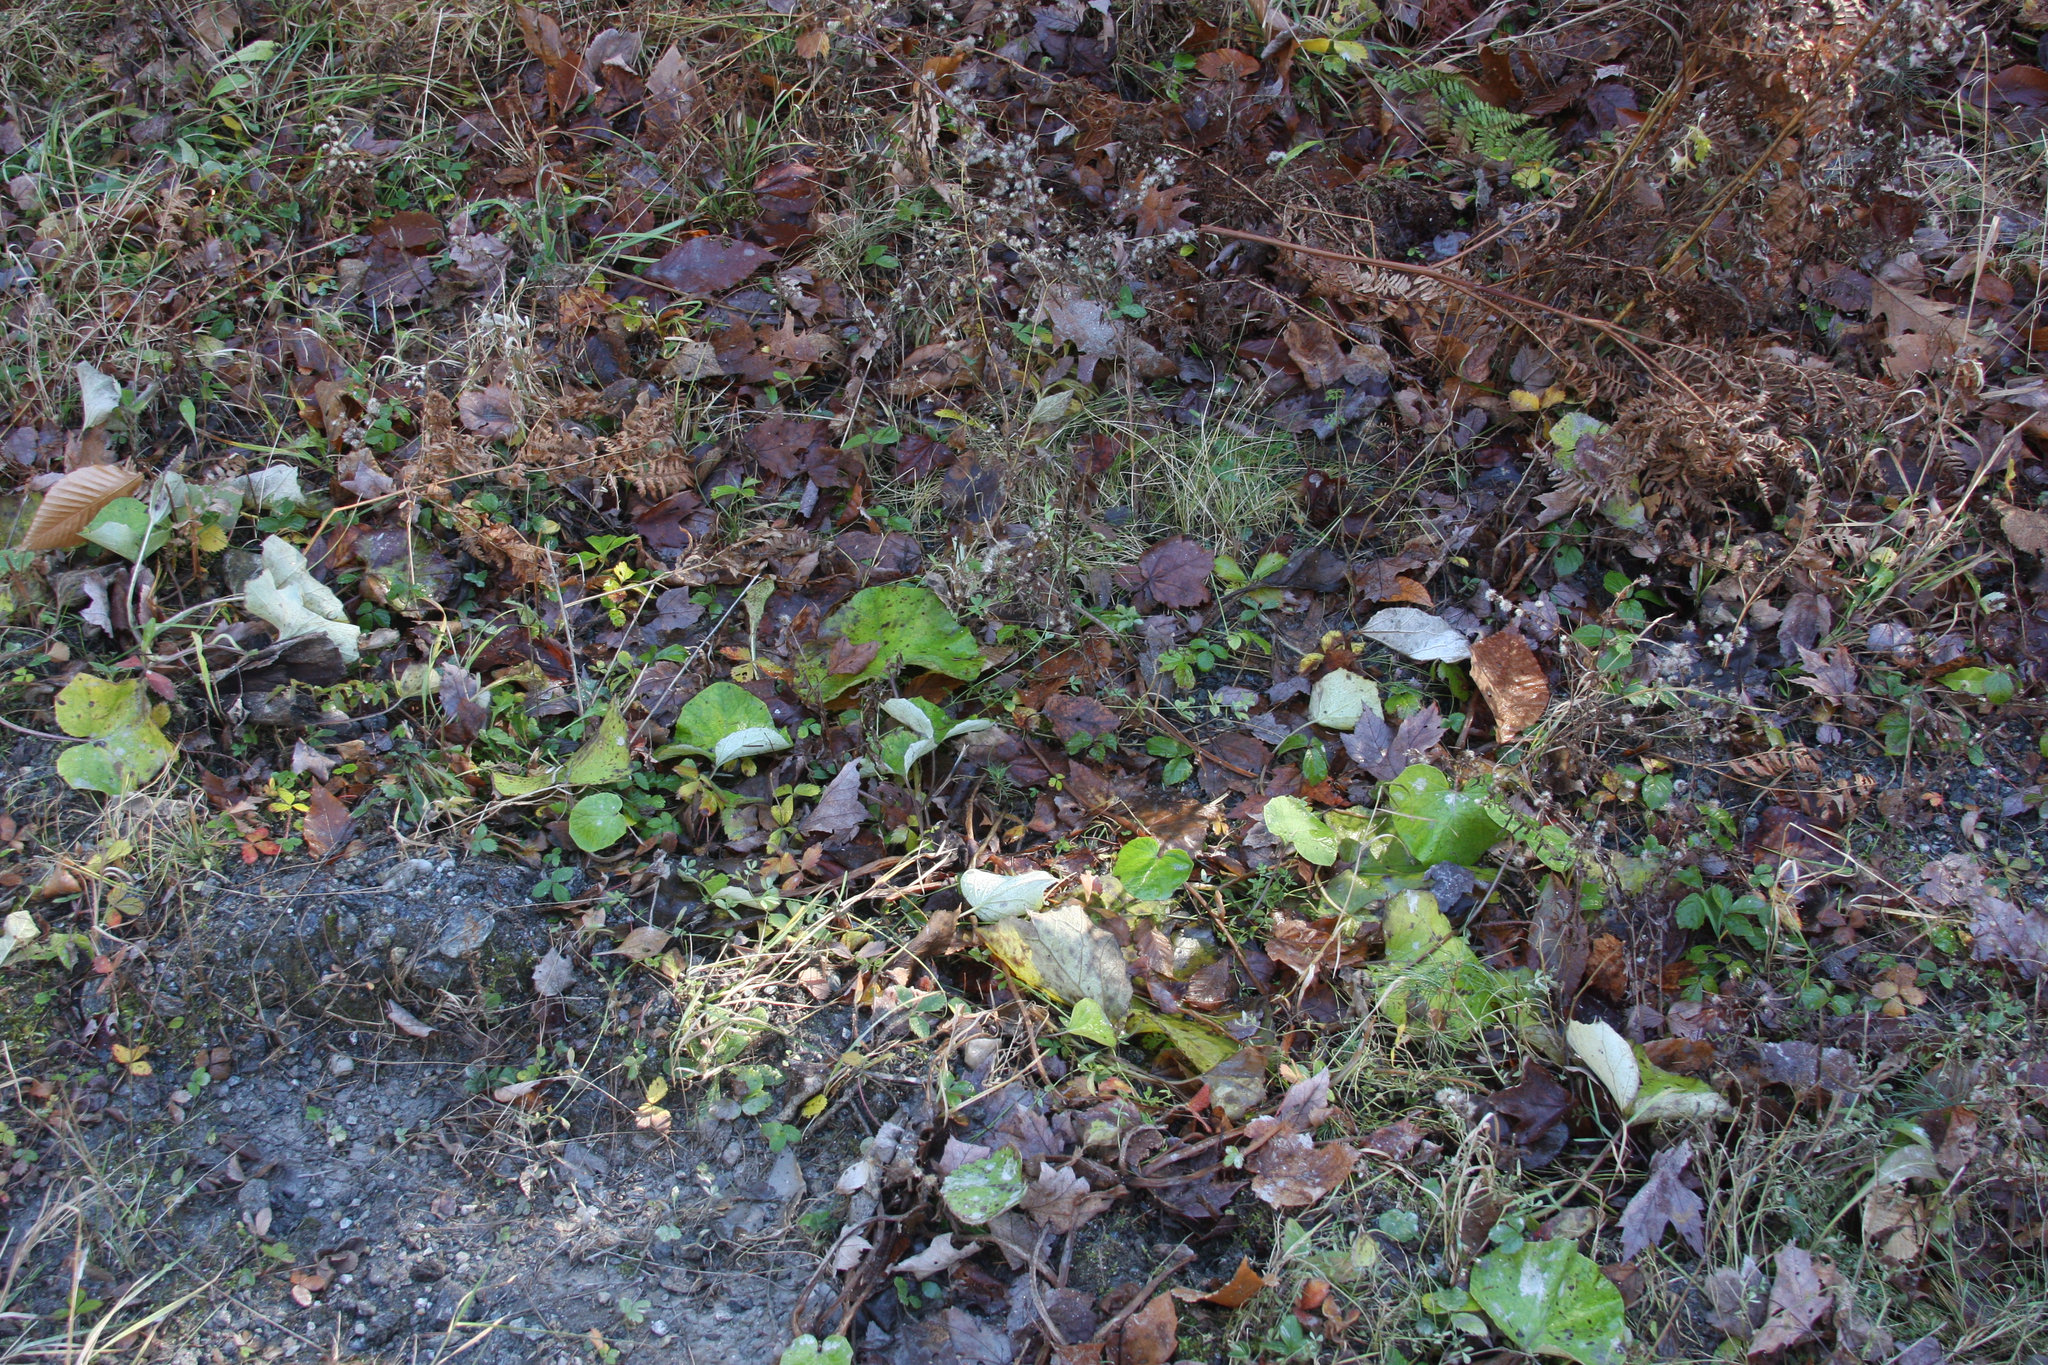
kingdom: Plantae
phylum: Tracheophyta
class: Magnoliopsida
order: Asterales
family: Asteraceae
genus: Tussilago
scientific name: Tussilago farfara
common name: Coltsfoot
